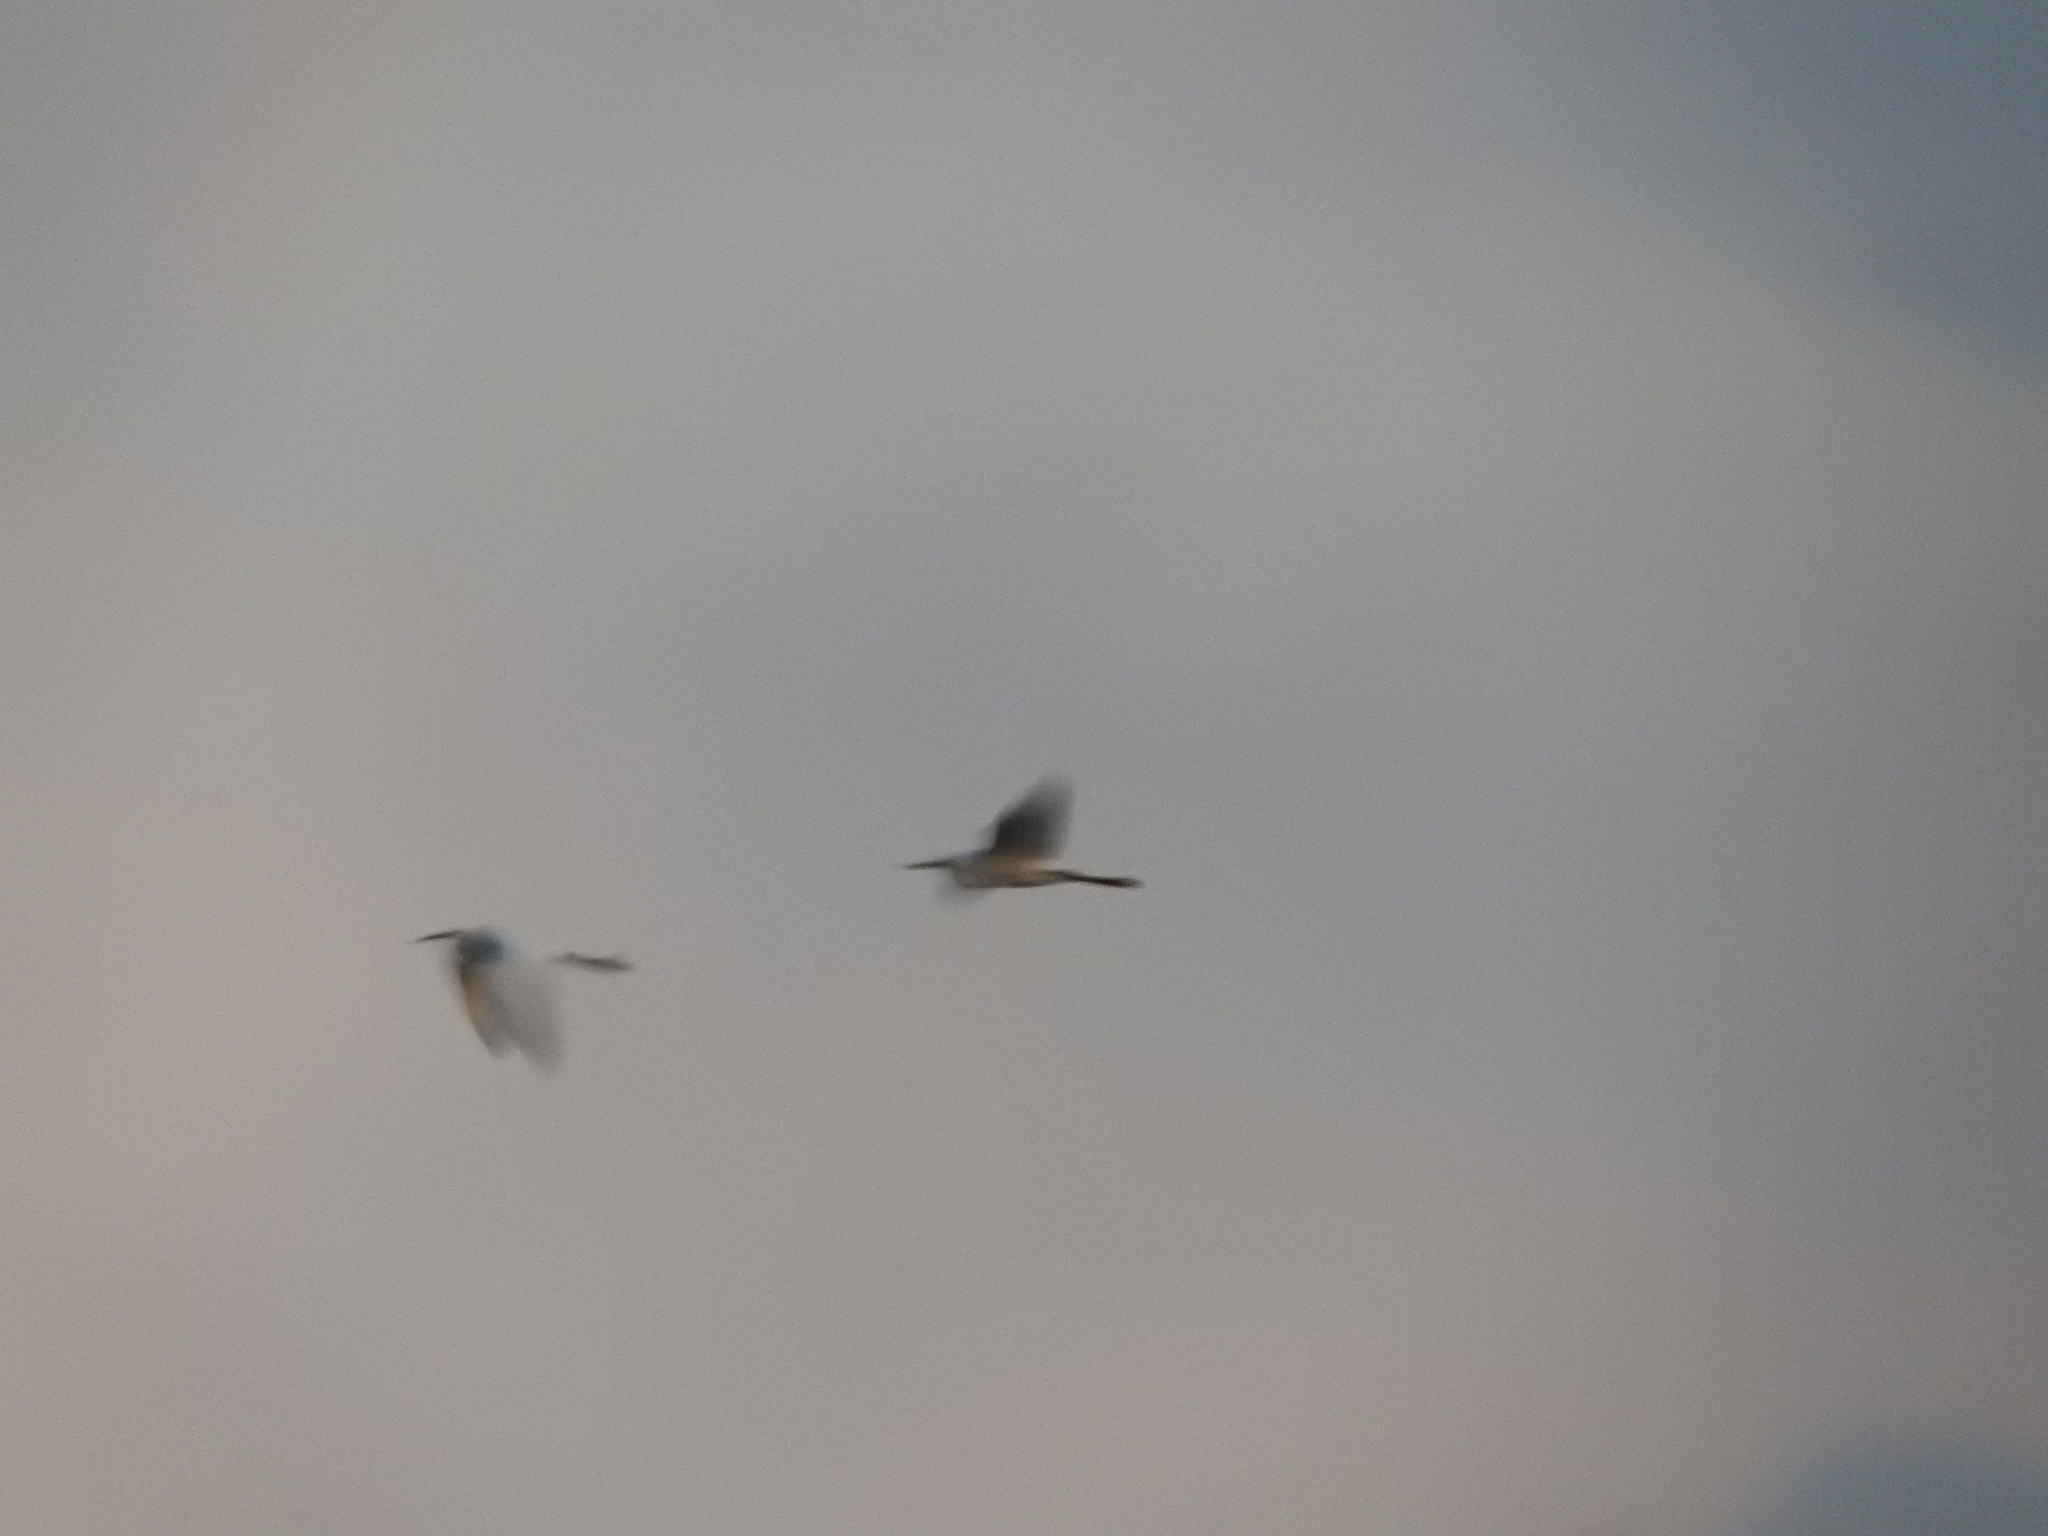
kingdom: Animalia
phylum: Chordata
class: Aves
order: Pelecaniformes
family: Ardeidae
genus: Egretta
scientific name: Egretta thula
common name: Snowy egret
